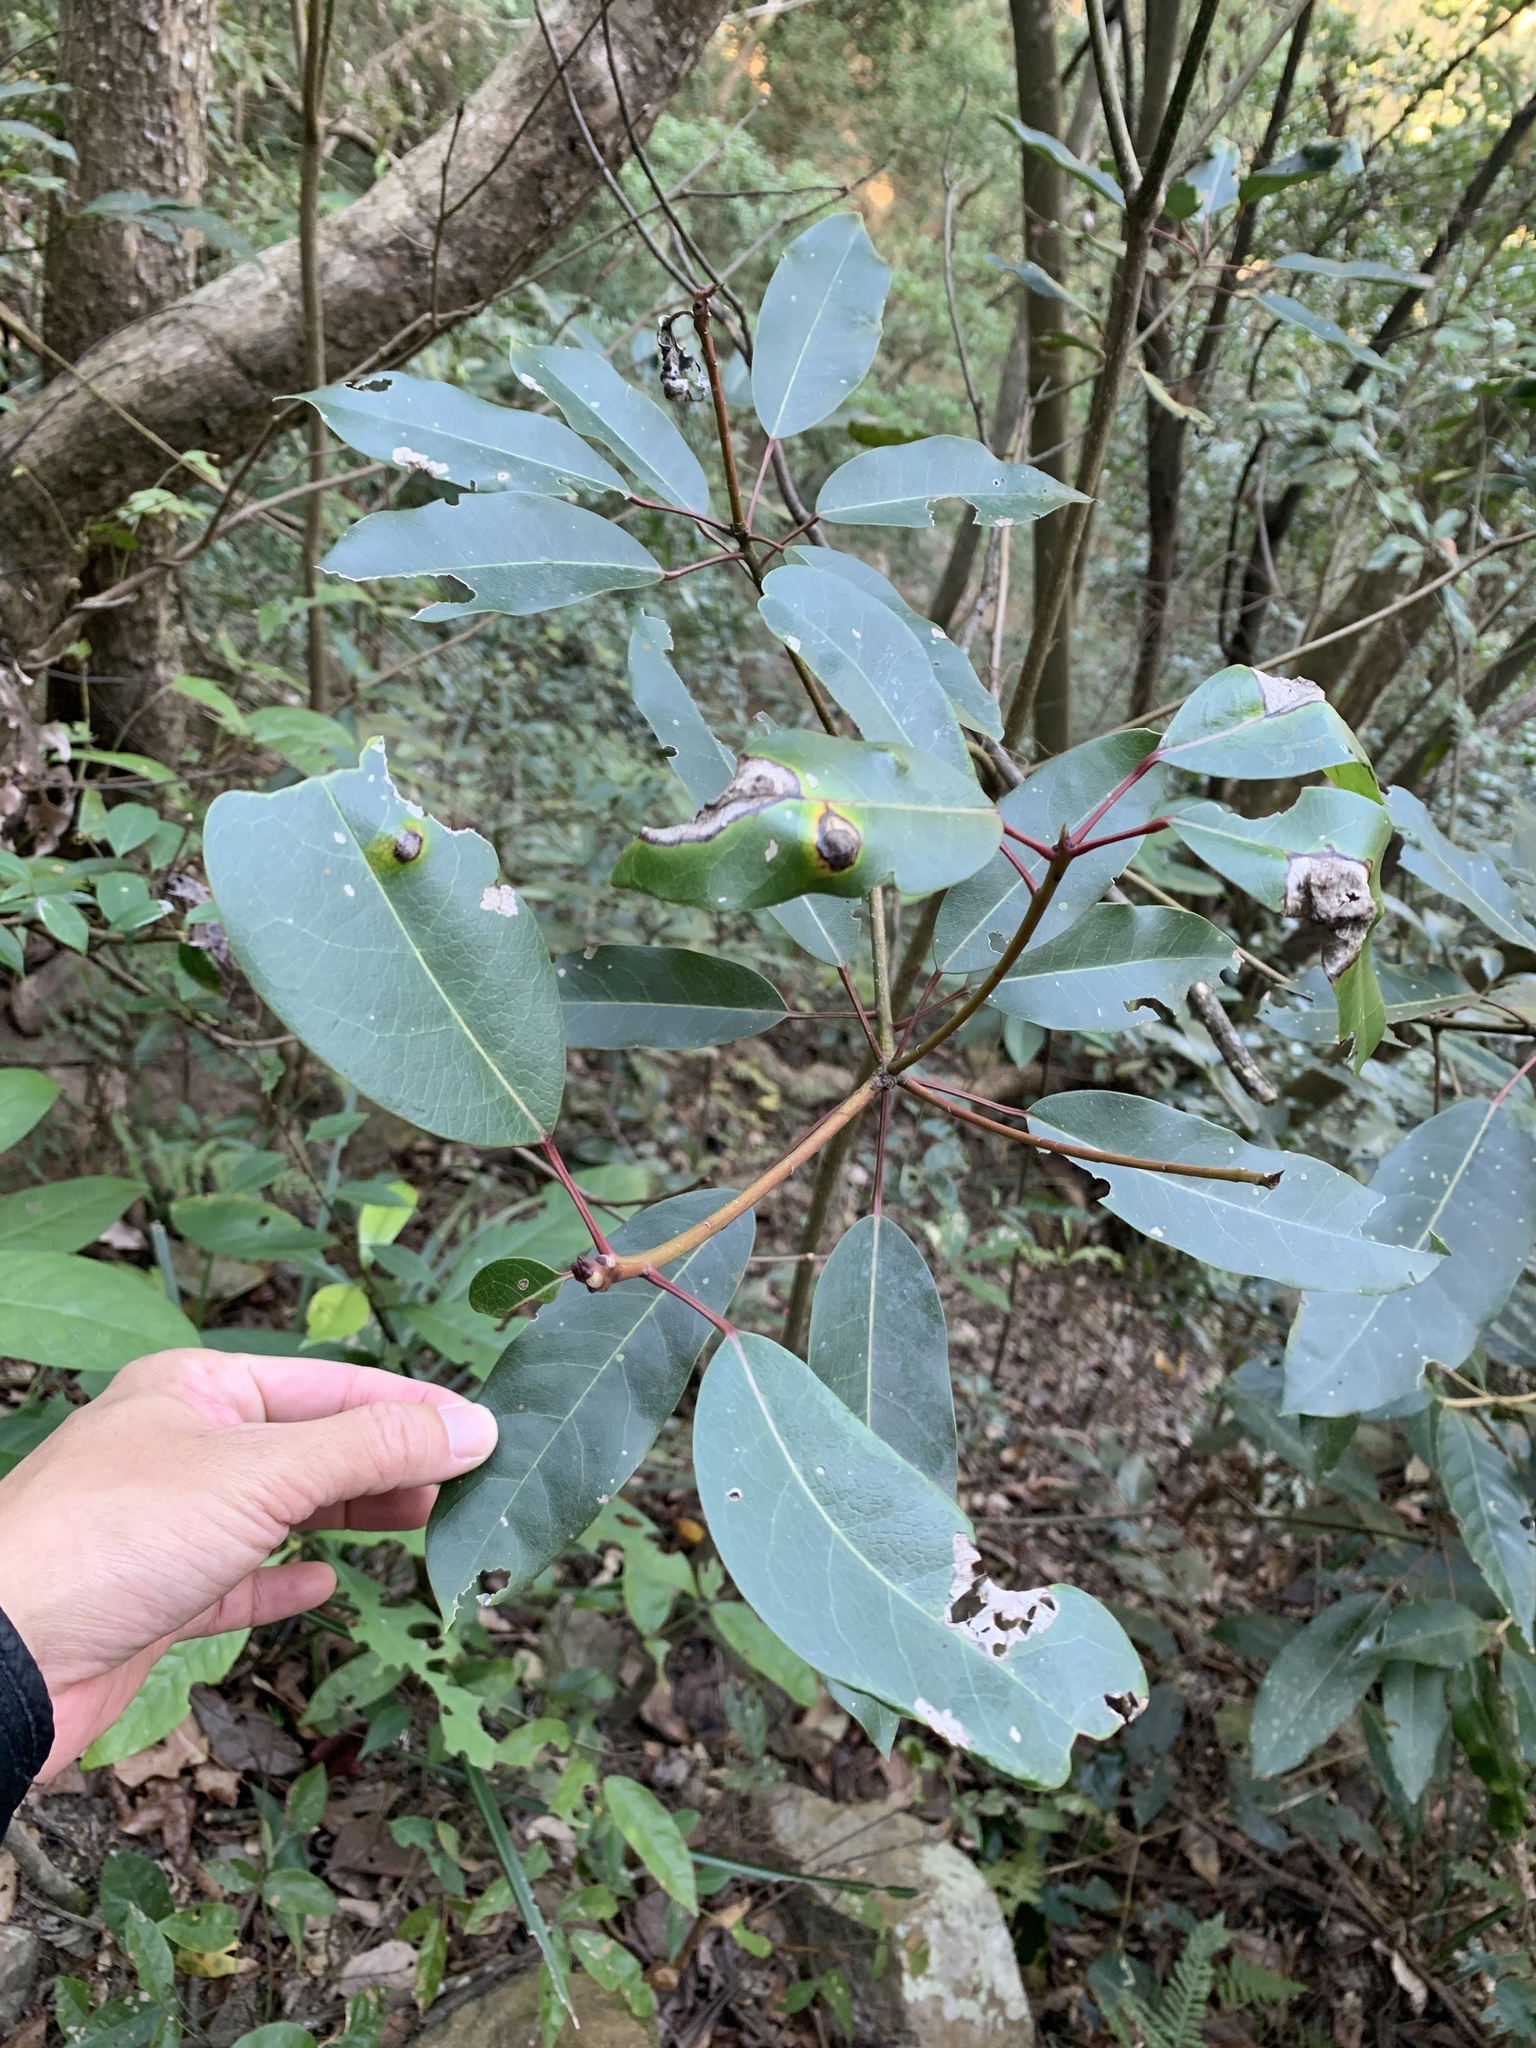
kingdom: Plantae
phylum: Tracheophyta
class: Magnoliopsida
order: Saxifragales
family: Daphniphyllaceae
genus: Daphniphyllum
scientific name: Daphniphyllum pentandrum
